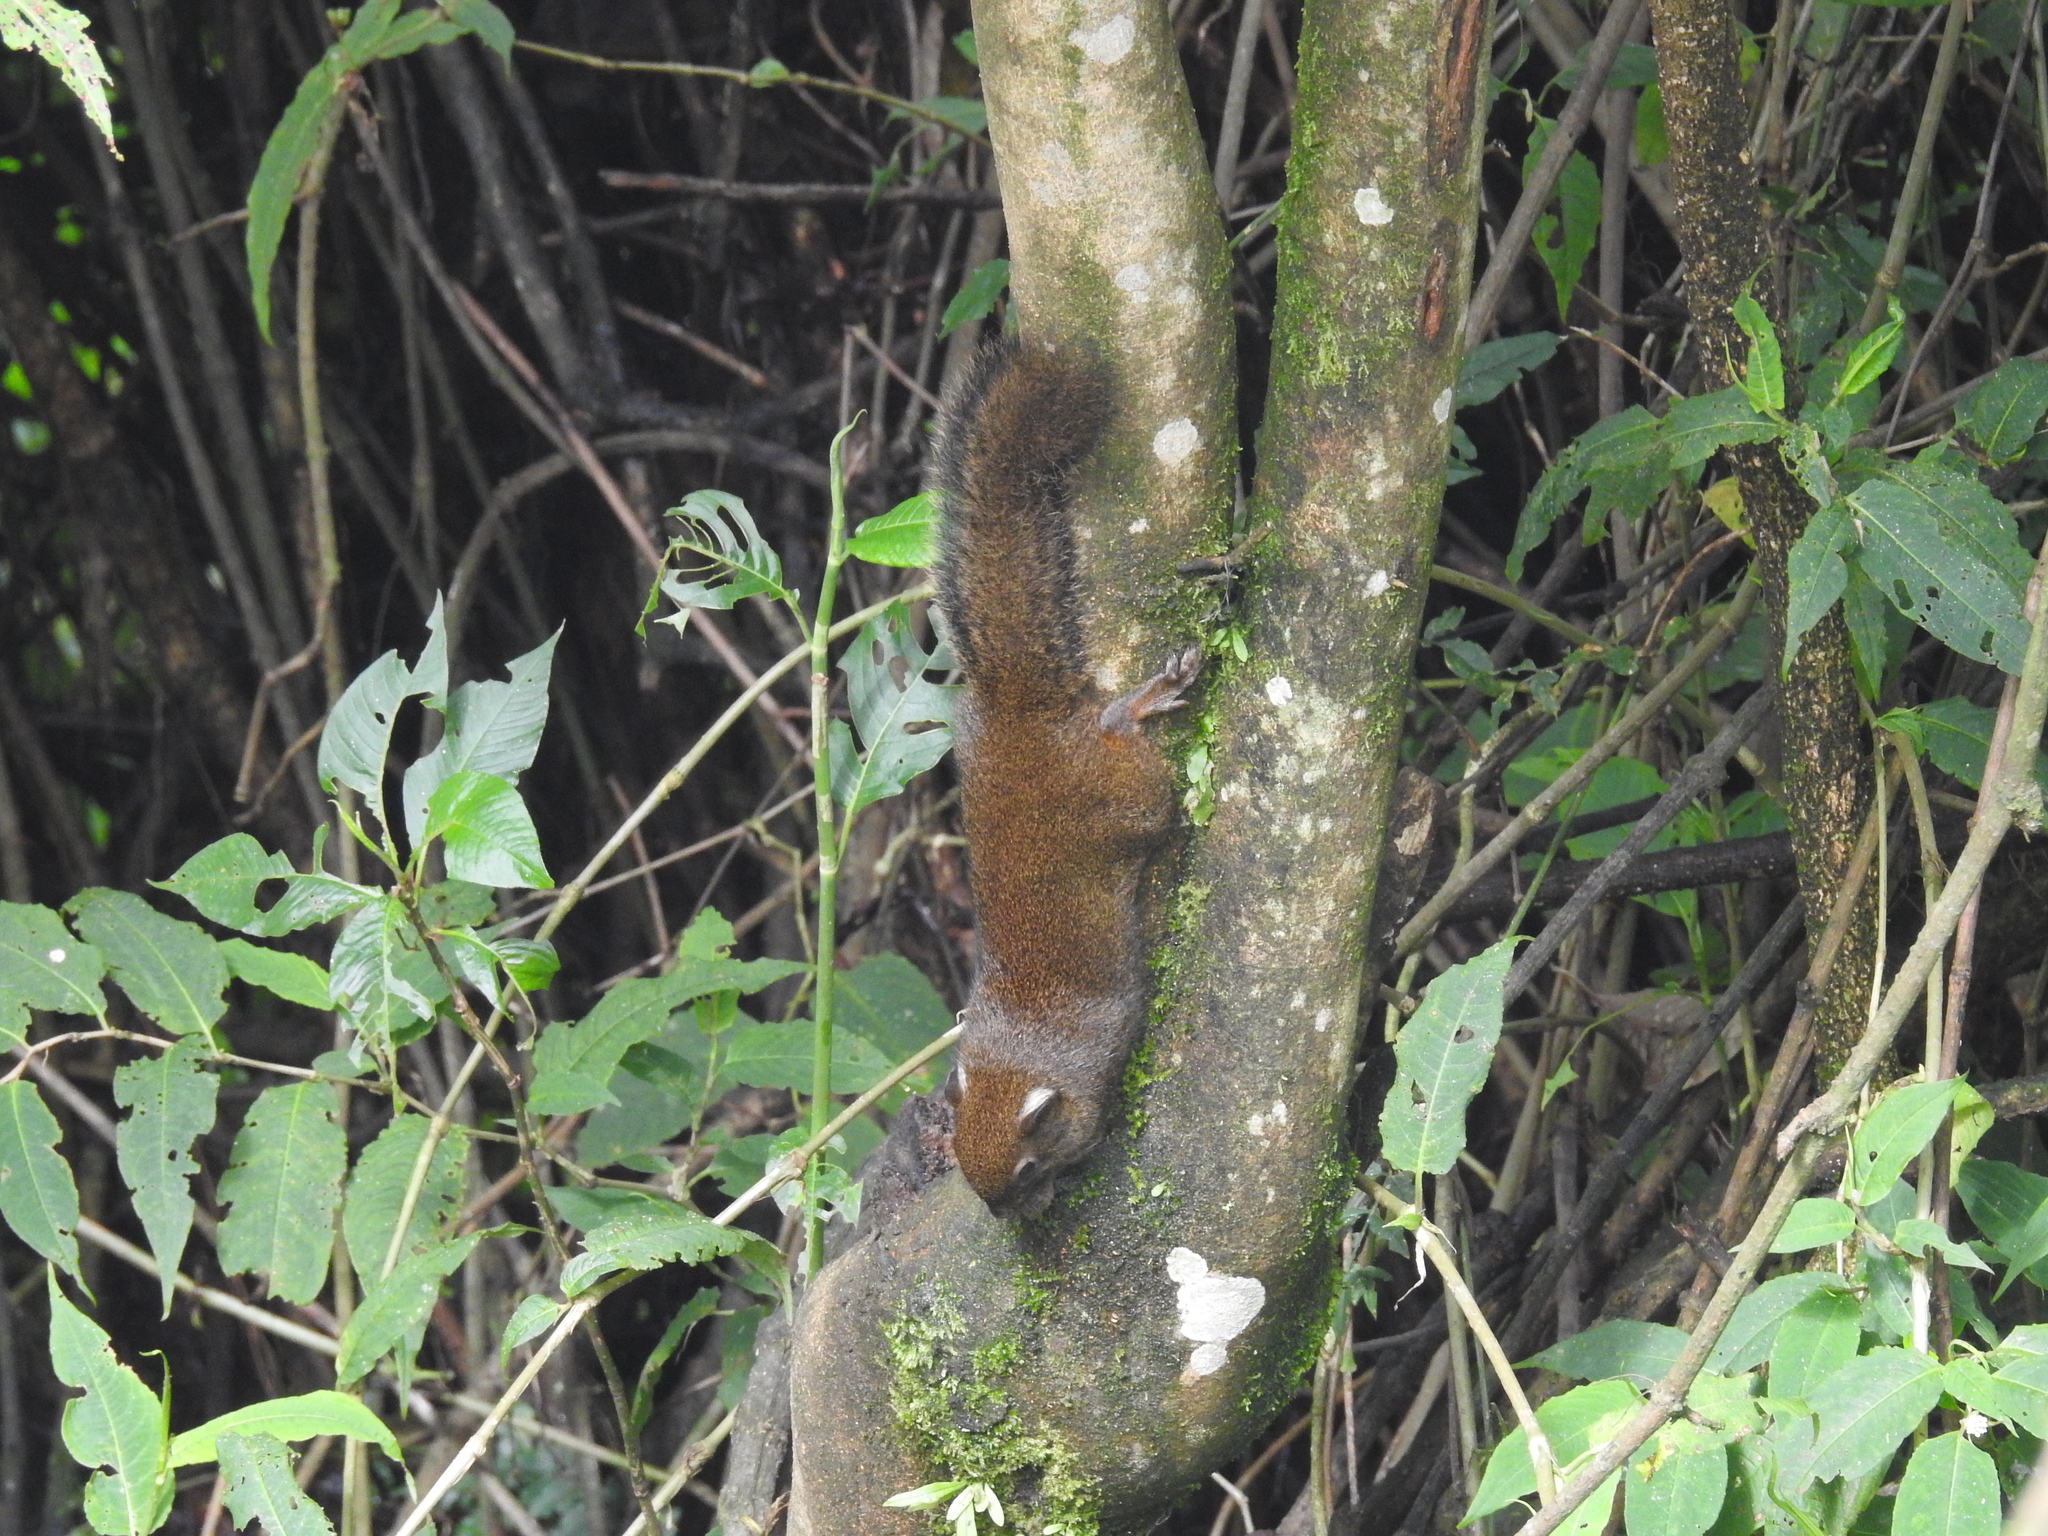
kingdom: Animalia
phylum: Chordata
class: Mammalia
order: Rodentia
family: Sciuridae
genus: Dremomys
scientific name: Dremomys lokriah
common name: Orange-bellied himalayan squirrel
